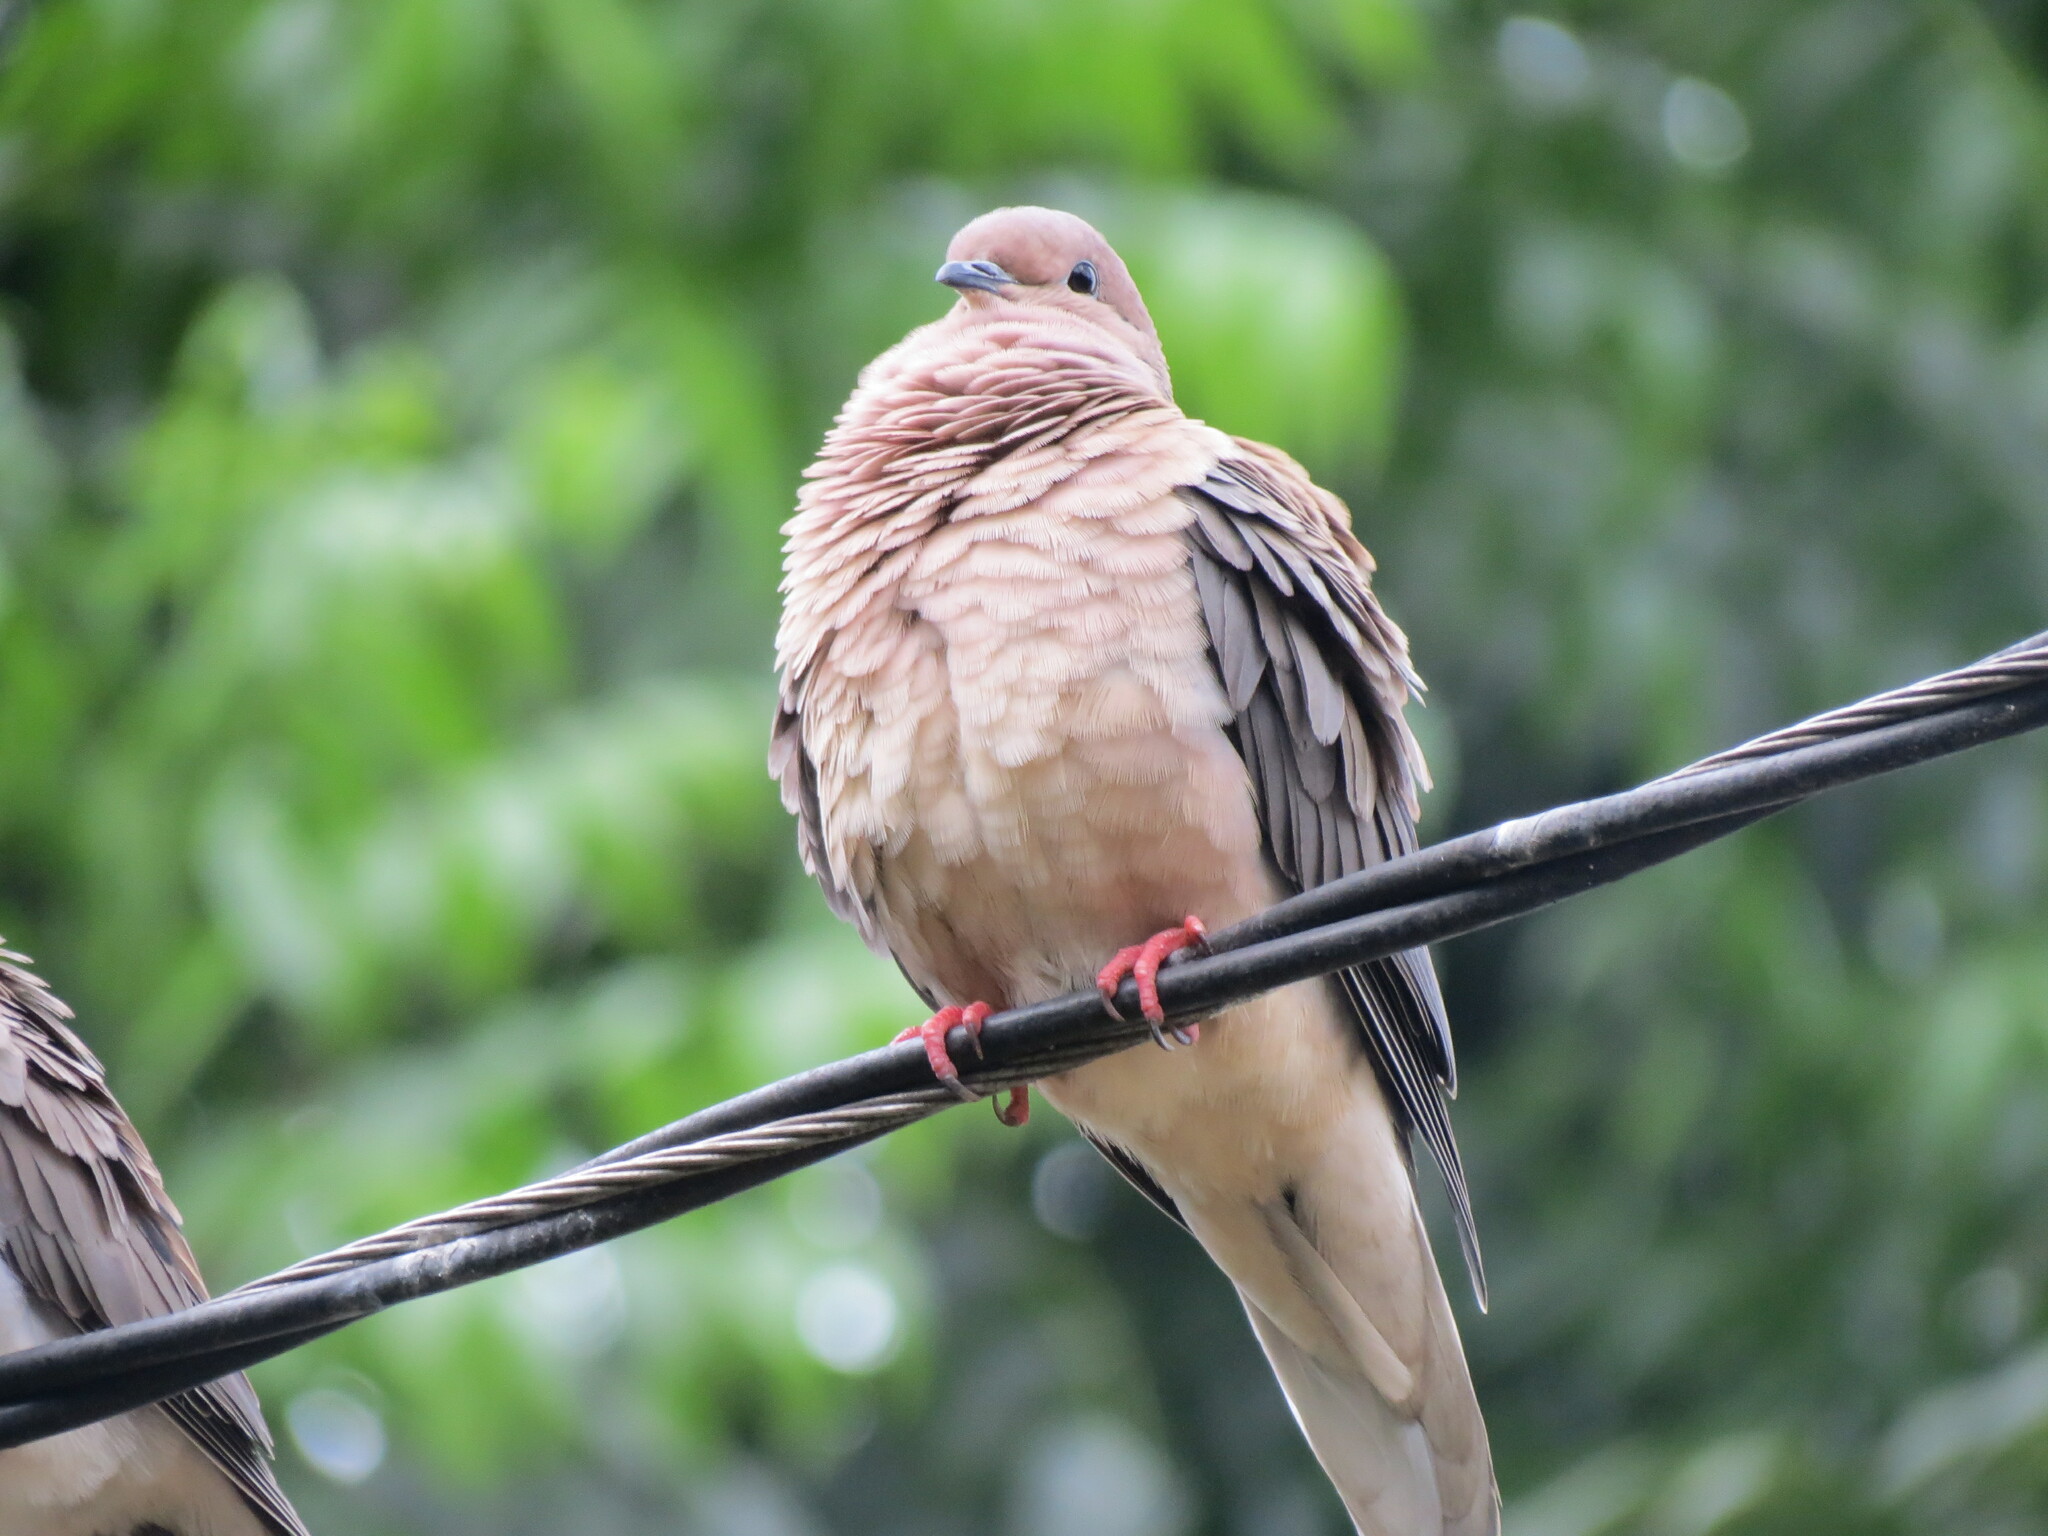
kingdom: Animalia
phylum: Chordata
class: Aves
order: Columbiformes
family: Columbidae
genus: Zenaida
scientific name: Zenaida auriculata
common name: Eared dove
